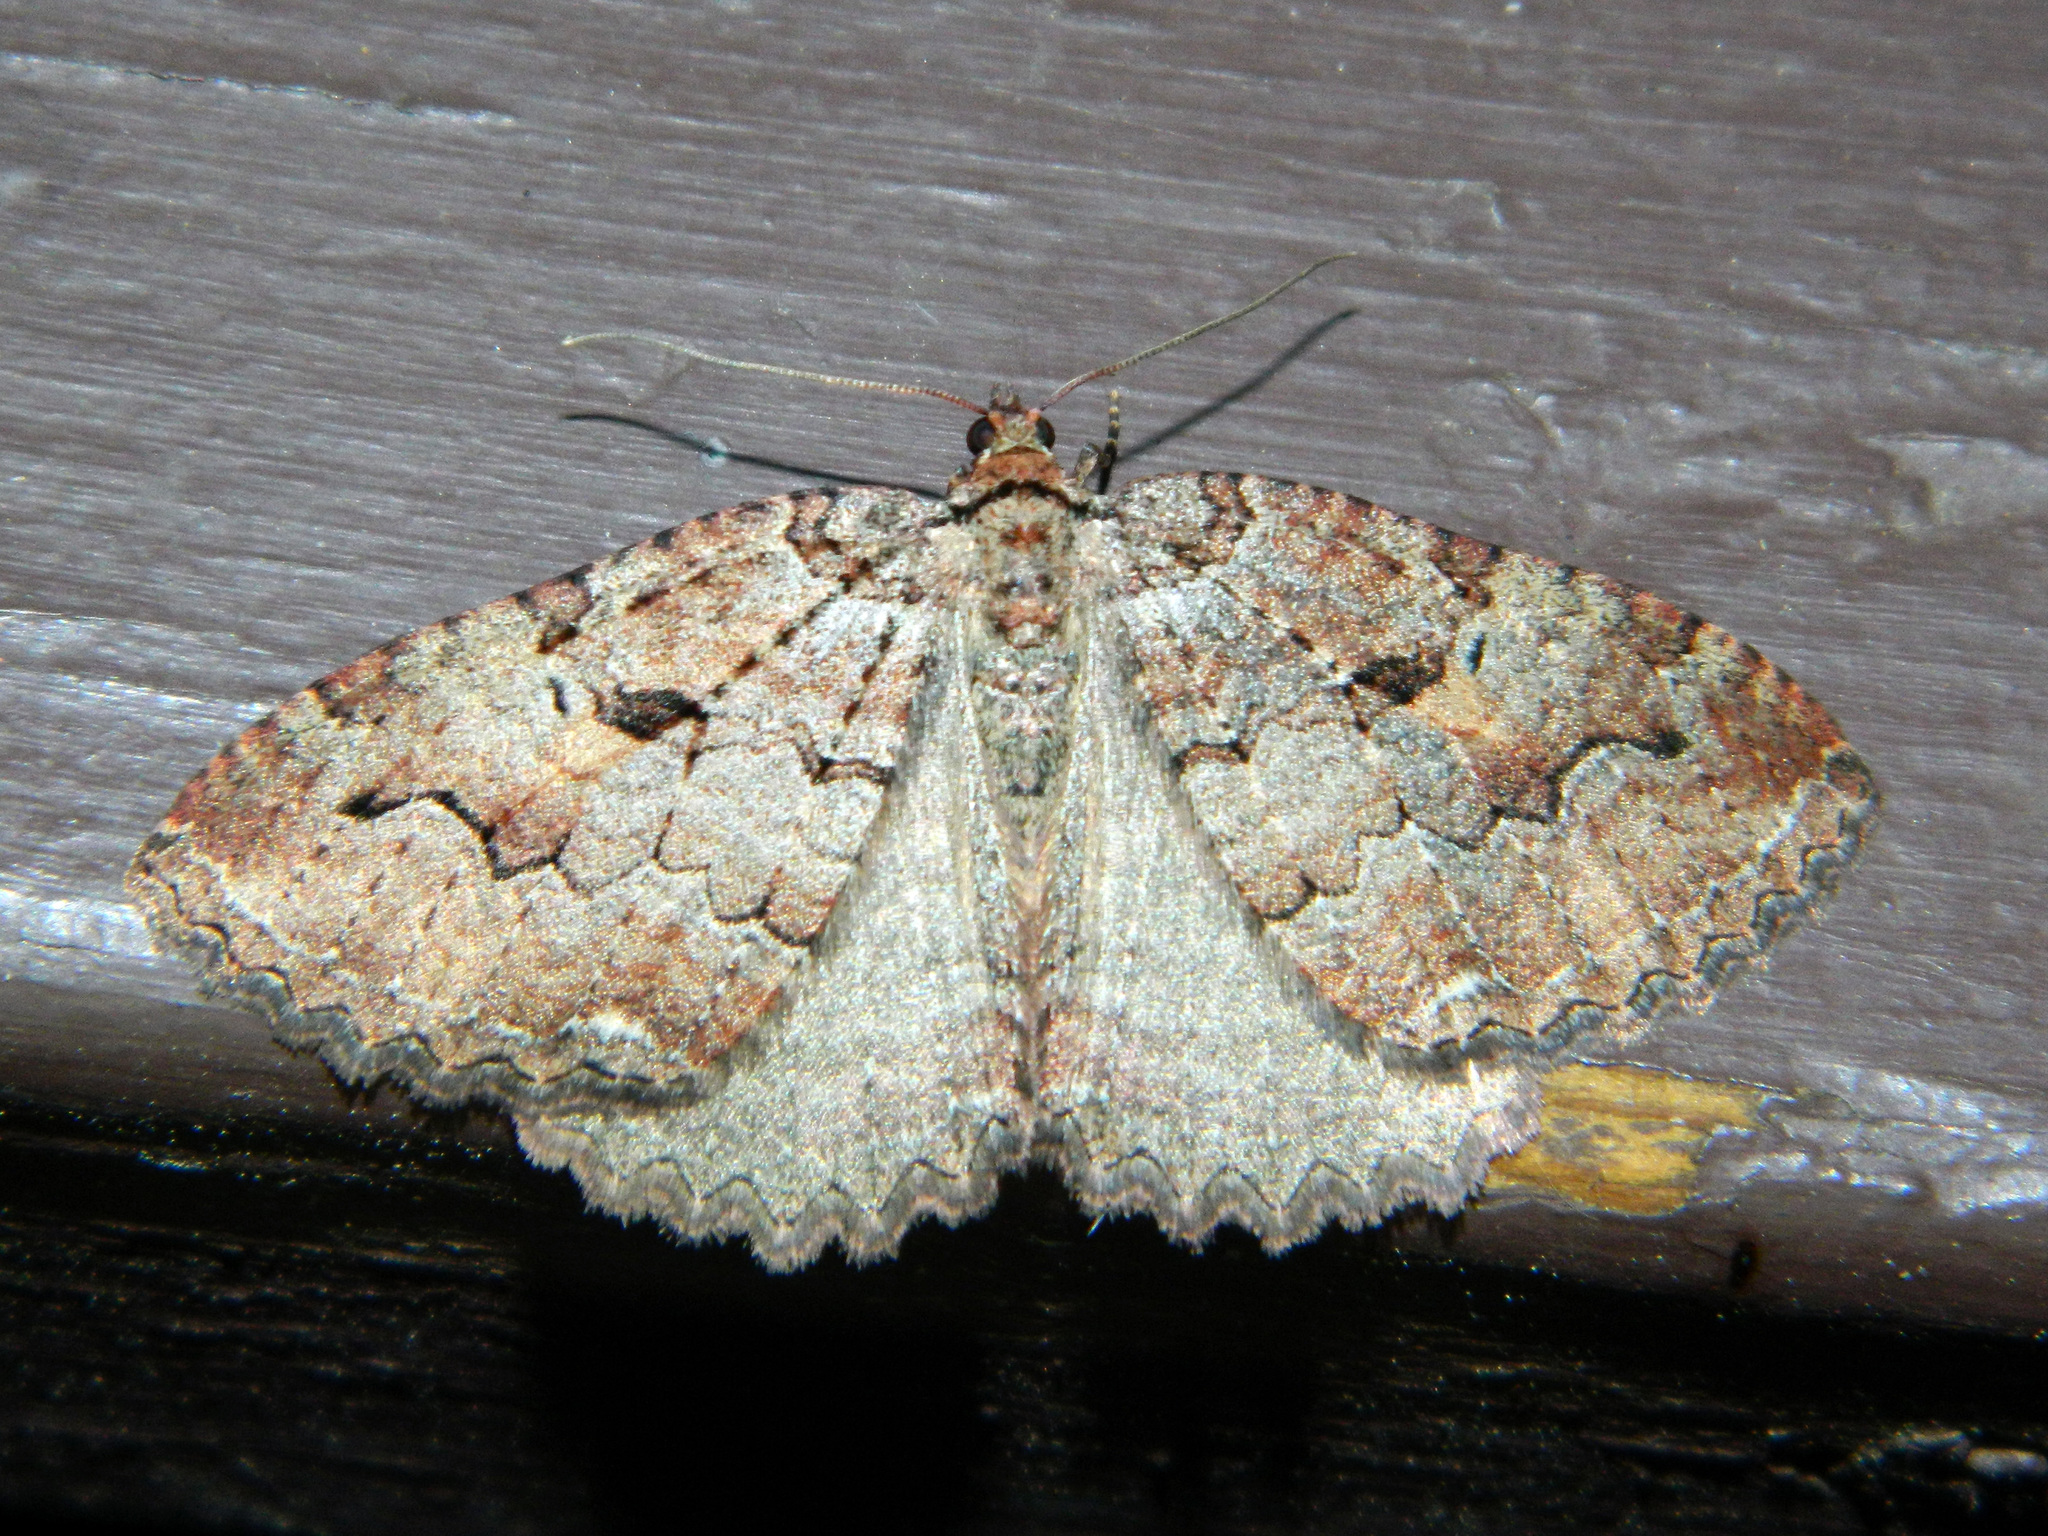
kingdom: Animalia
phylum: Arthropoda
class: Insecta
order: Lepidoptera
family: Geometridae
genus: Triphosa
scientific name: Triphosa haesitata
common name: Tissue moth
